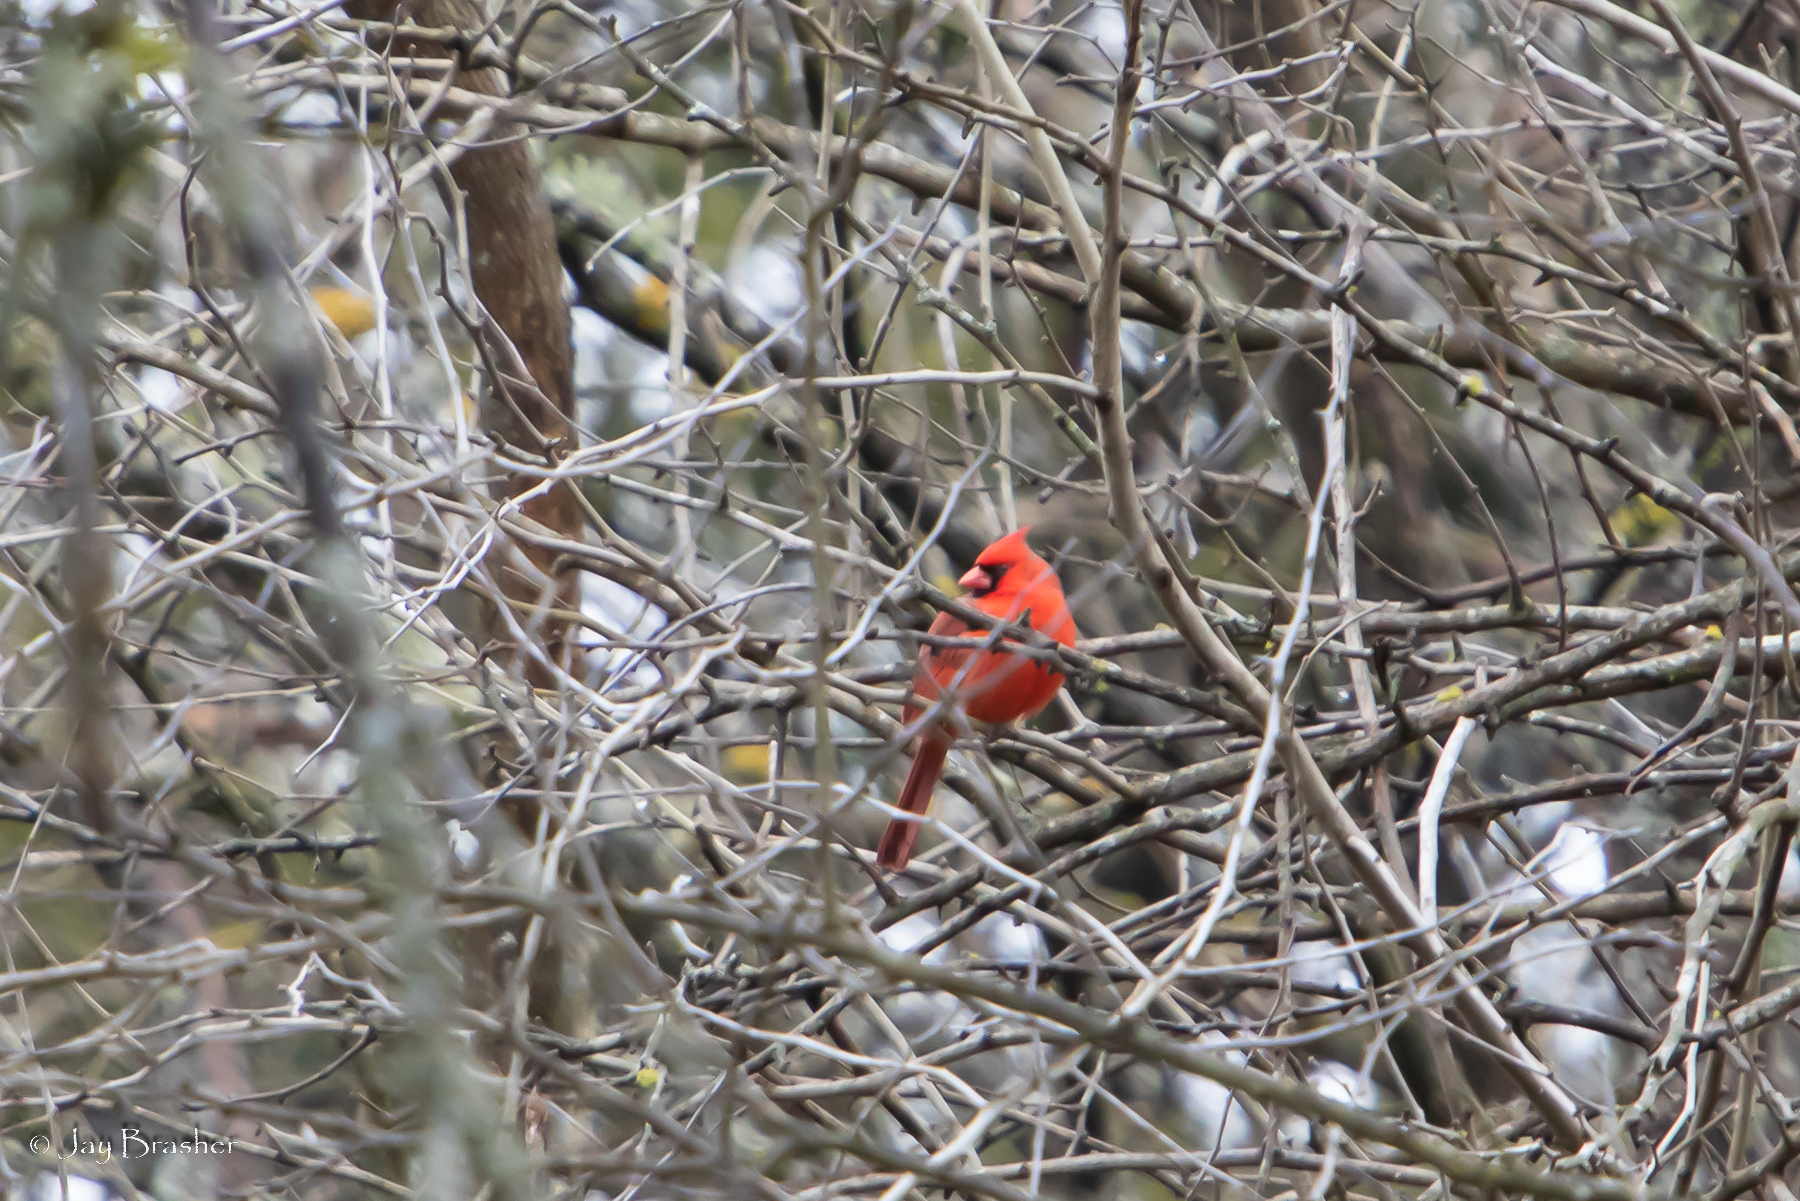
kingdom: Animalia
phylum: Chordata
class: Aves
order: Passeriformes
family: Cardinalidae
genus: Cardinalis
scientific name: Cardinalis cardinalis
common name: Northern cardinal
